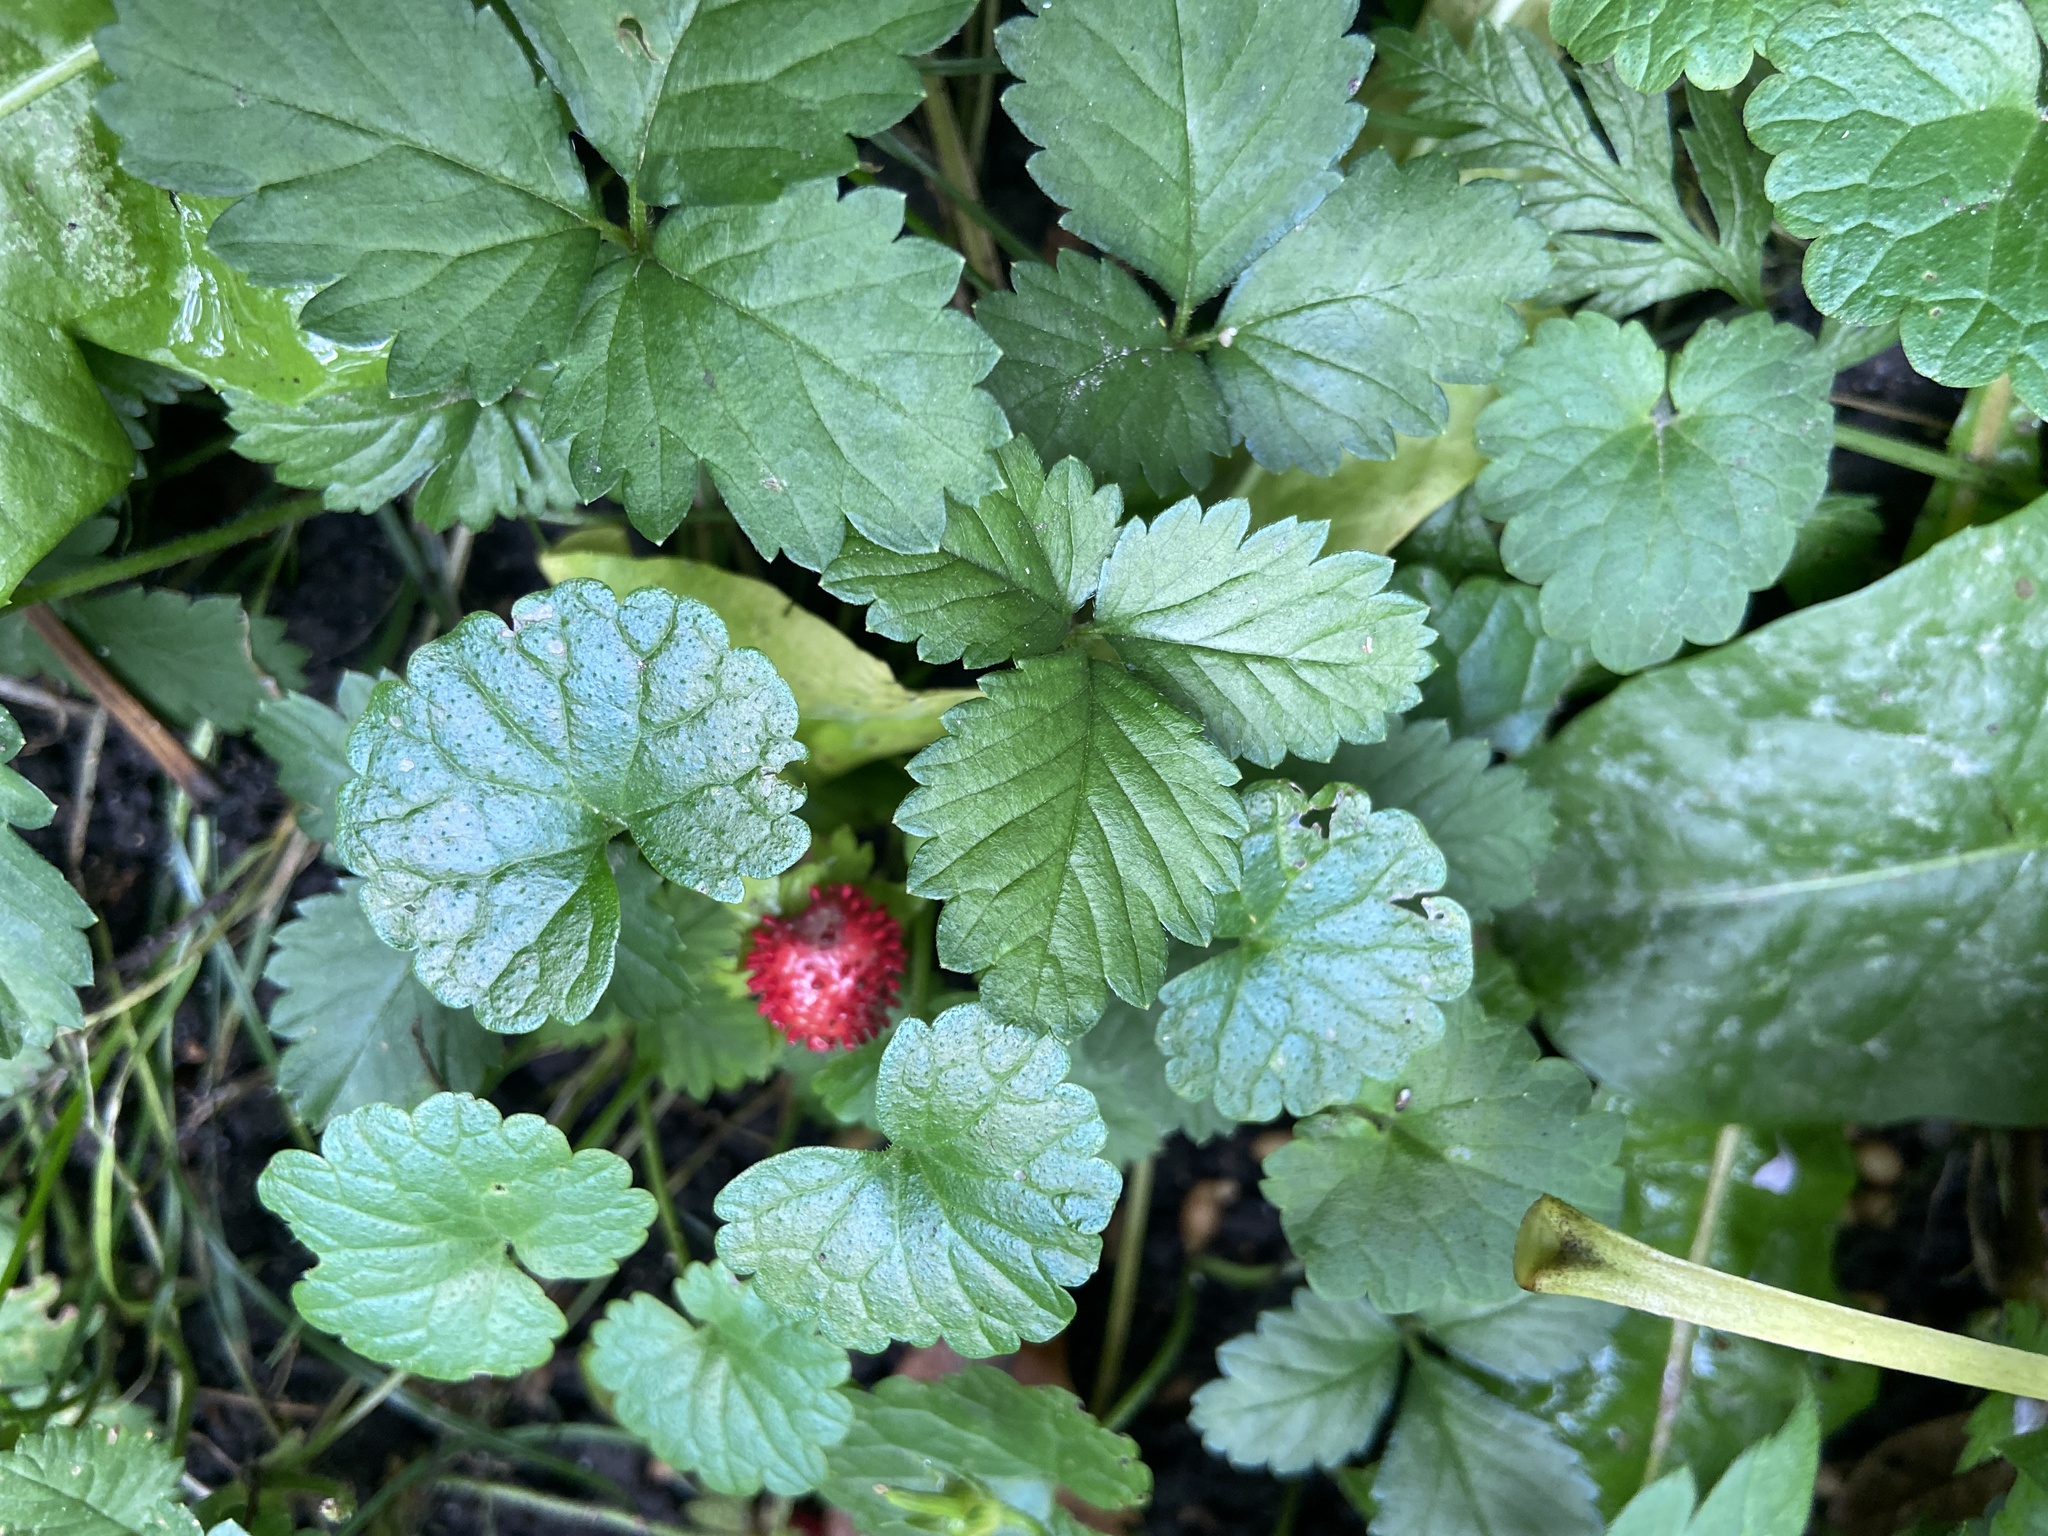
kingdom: Plantae
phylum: Tracheophyta
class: Magnoliopsida
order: Rosales
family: Rosaceae
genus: Potentilla
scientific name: Potentilla indica
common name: Yellow-flowered strawberry
